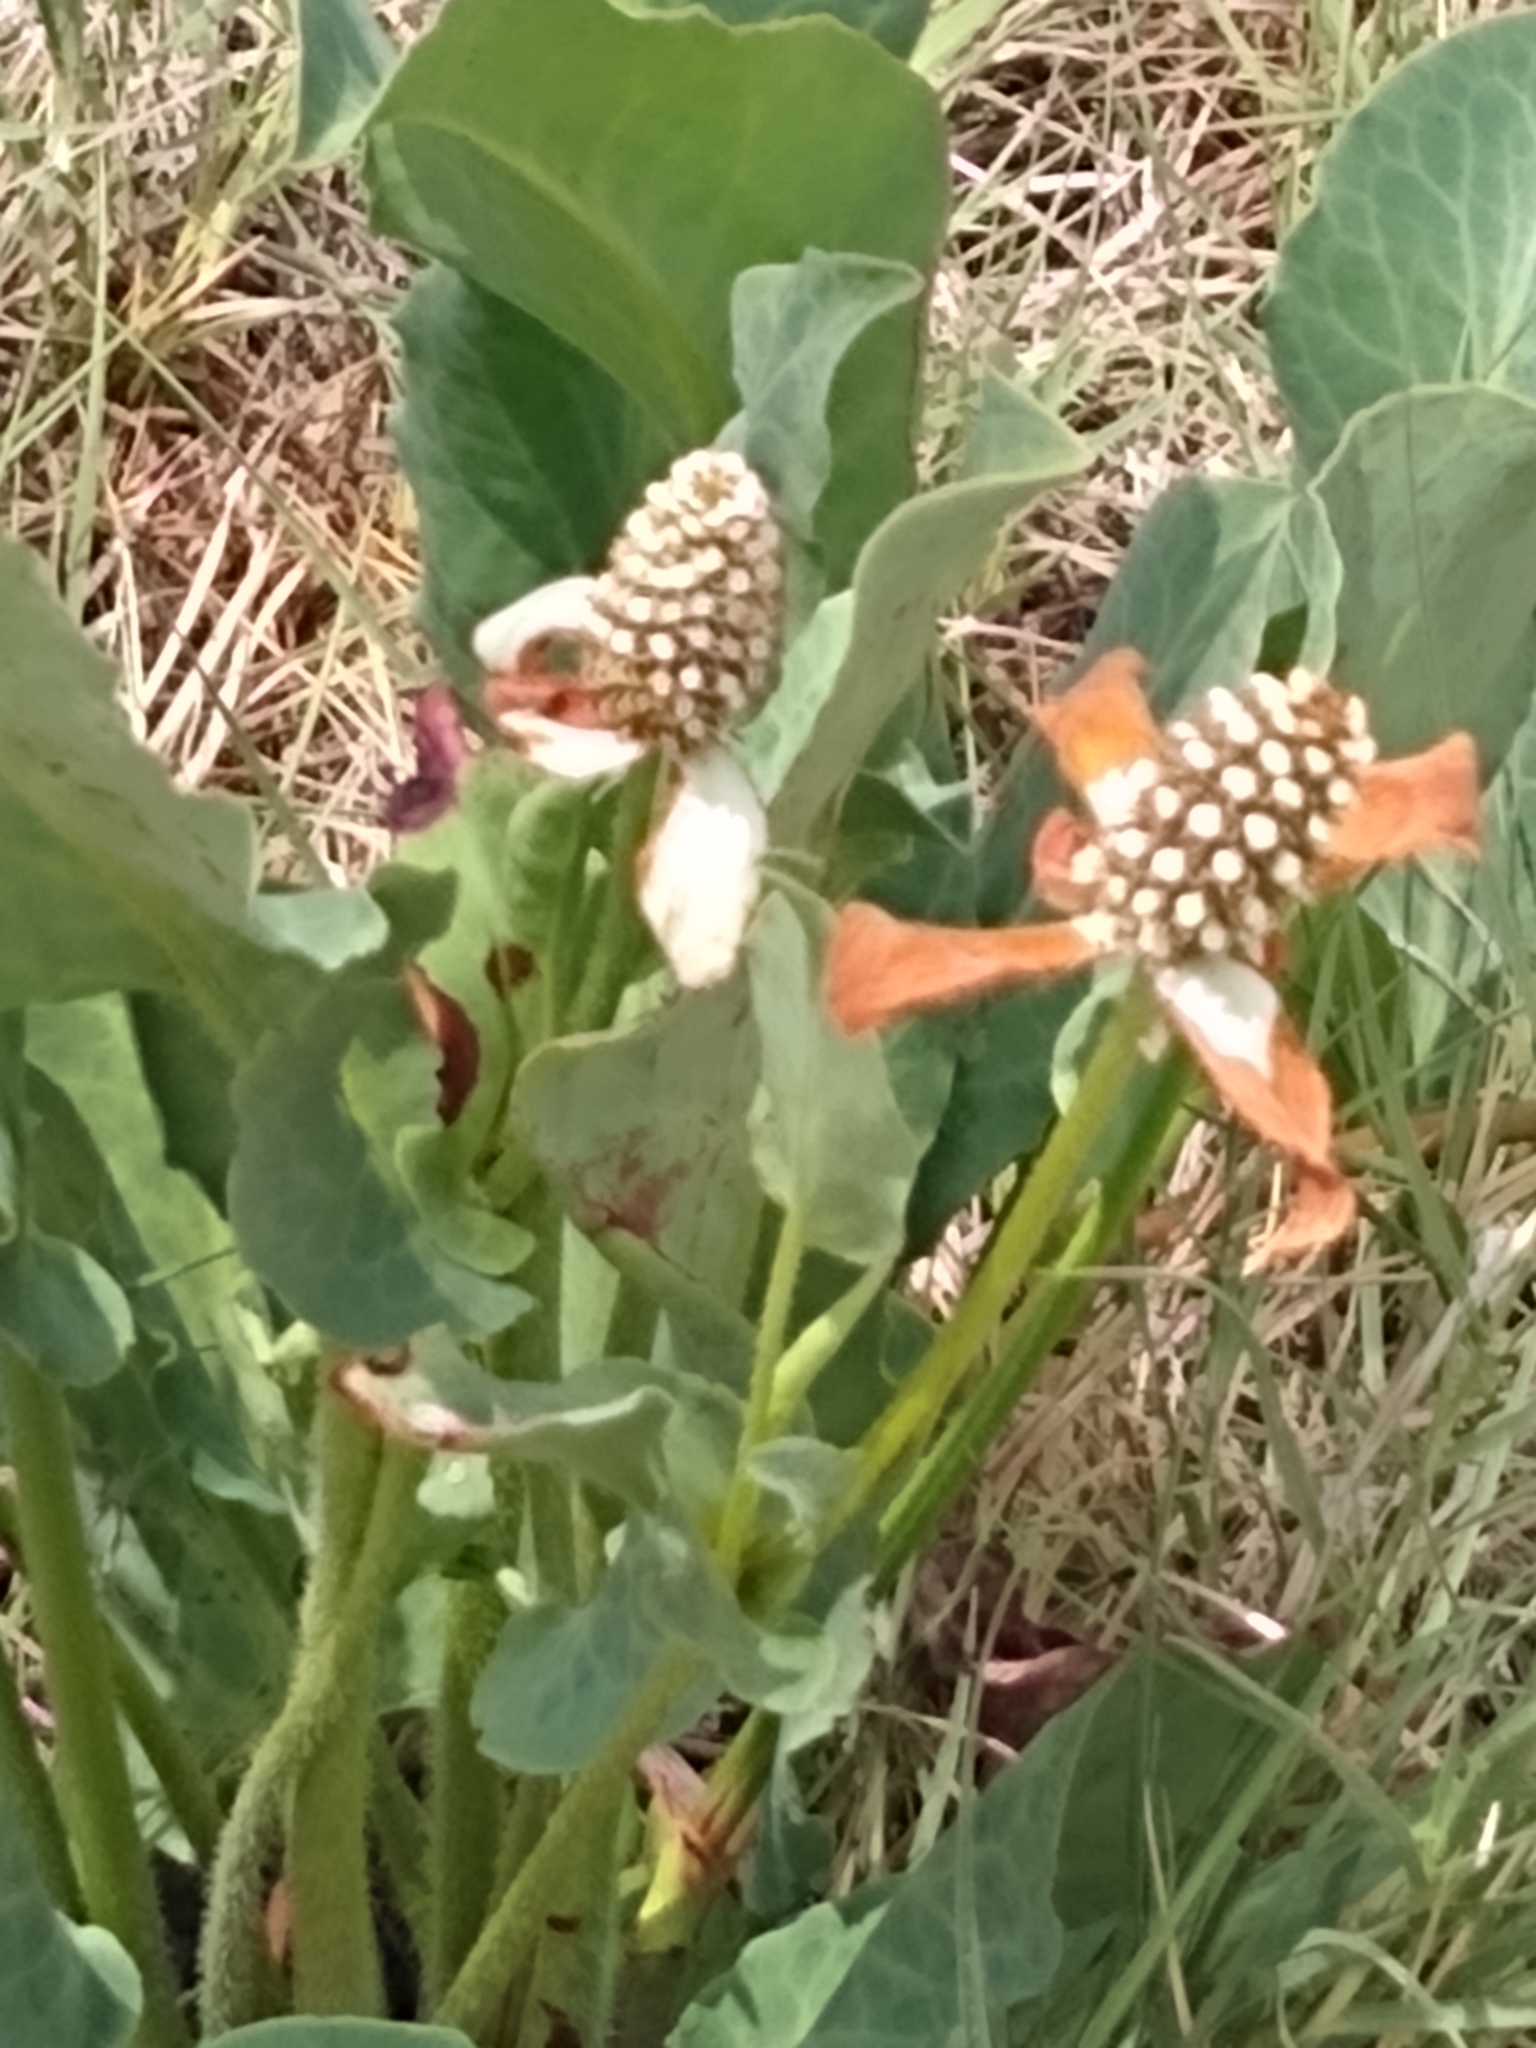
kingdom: Plantae
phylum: Tracheophyta
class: Magnoliopsida
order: Piperales
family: Saururaceae
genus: Anemopsis
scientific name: Anemopsis californica
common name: Apache-beads
